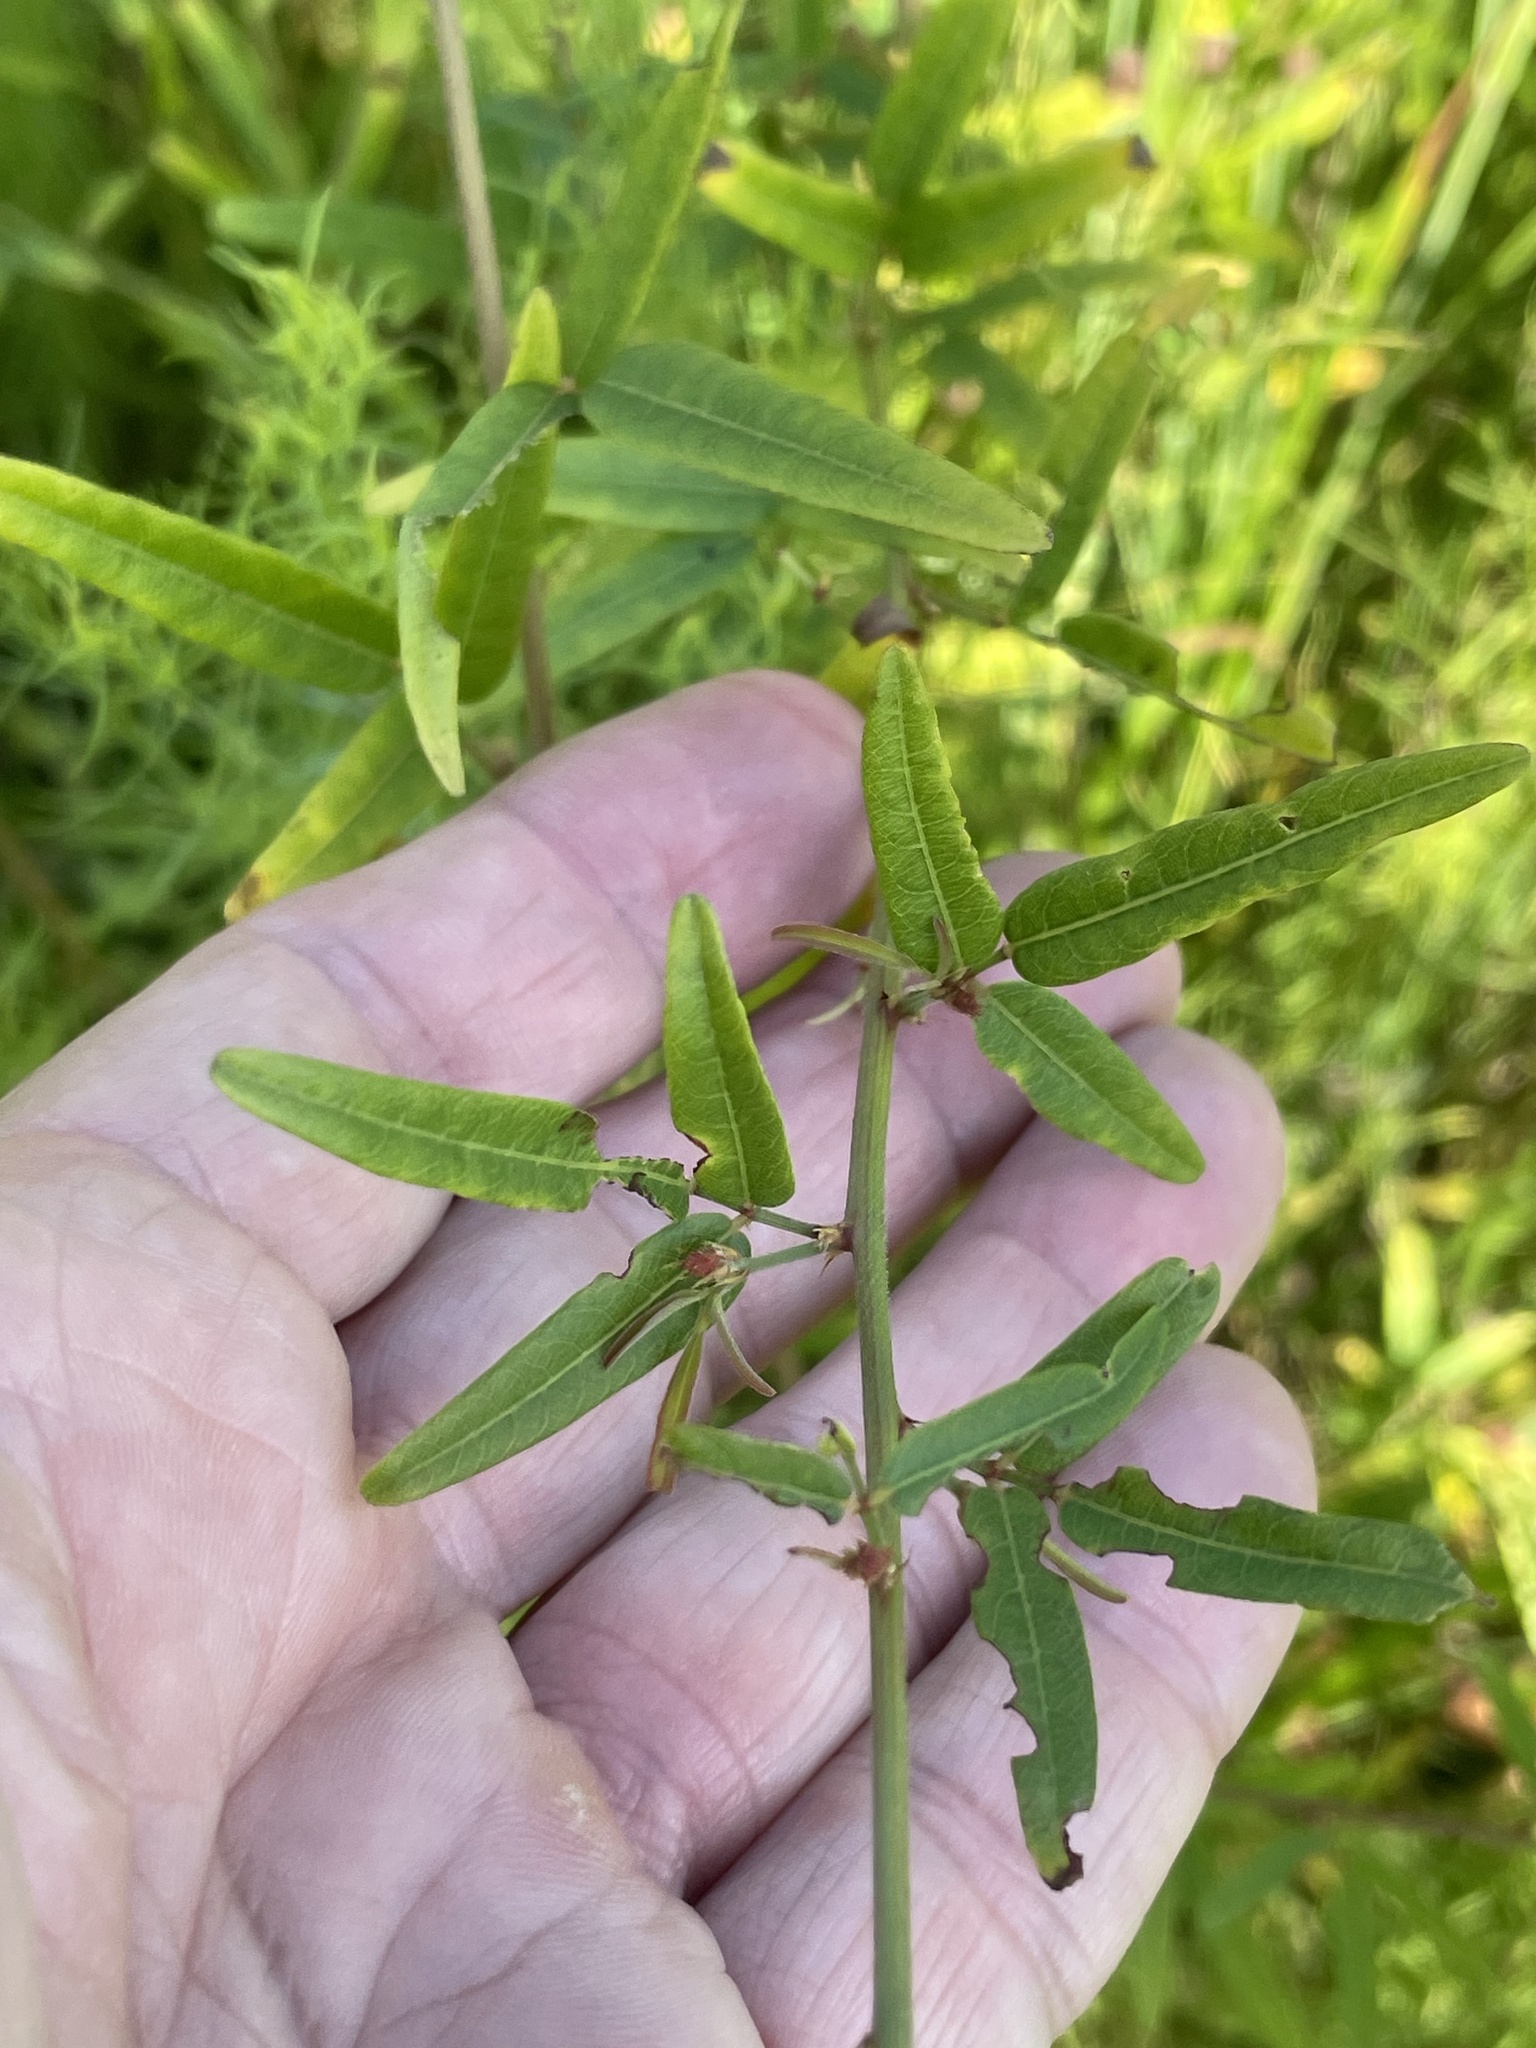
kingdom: Plantae
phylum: Tracheophyta
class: Magnoliopsida
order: Fabales
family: Fabaceae
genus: Desmodium
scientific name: Desmodium paniculatum
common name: Panicled tick-clover
